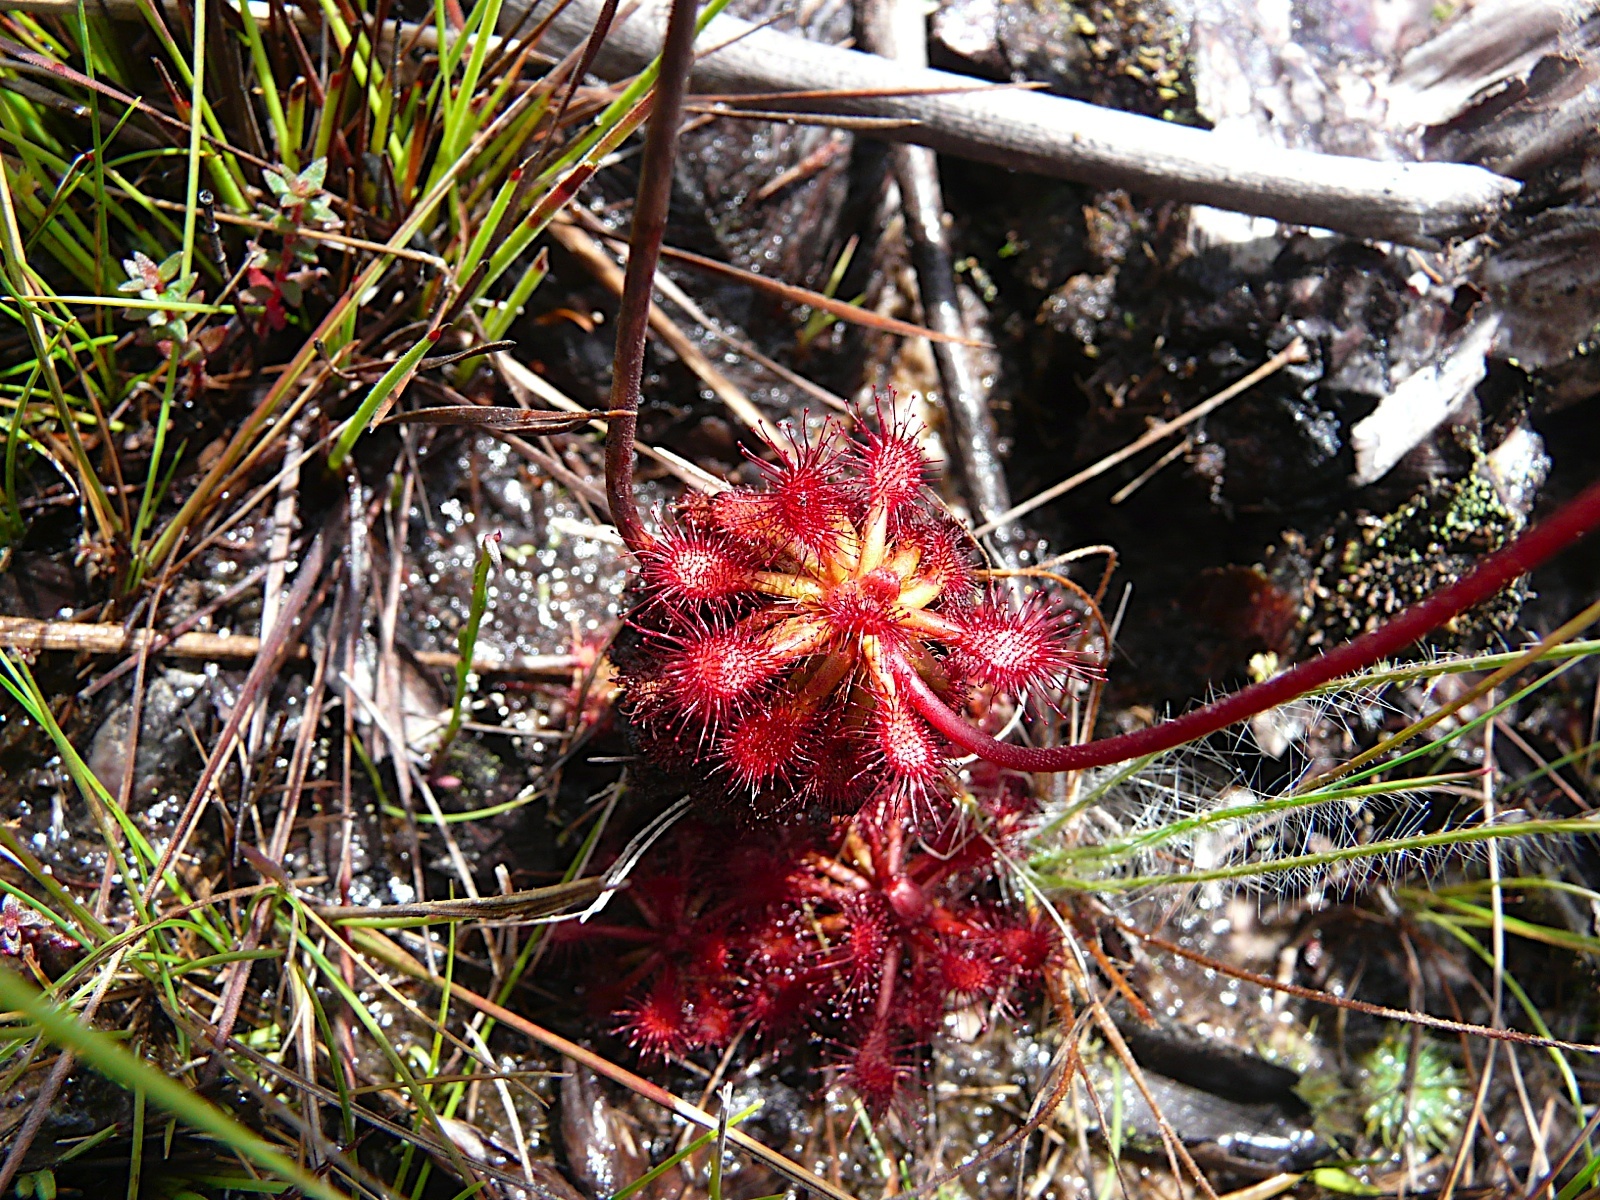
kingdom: Plantae
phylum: Tracheophyta
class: Magnoliopsida
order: Caryophyllales
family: Droseraceae
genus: Drosera
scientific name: Drosera roraimae
